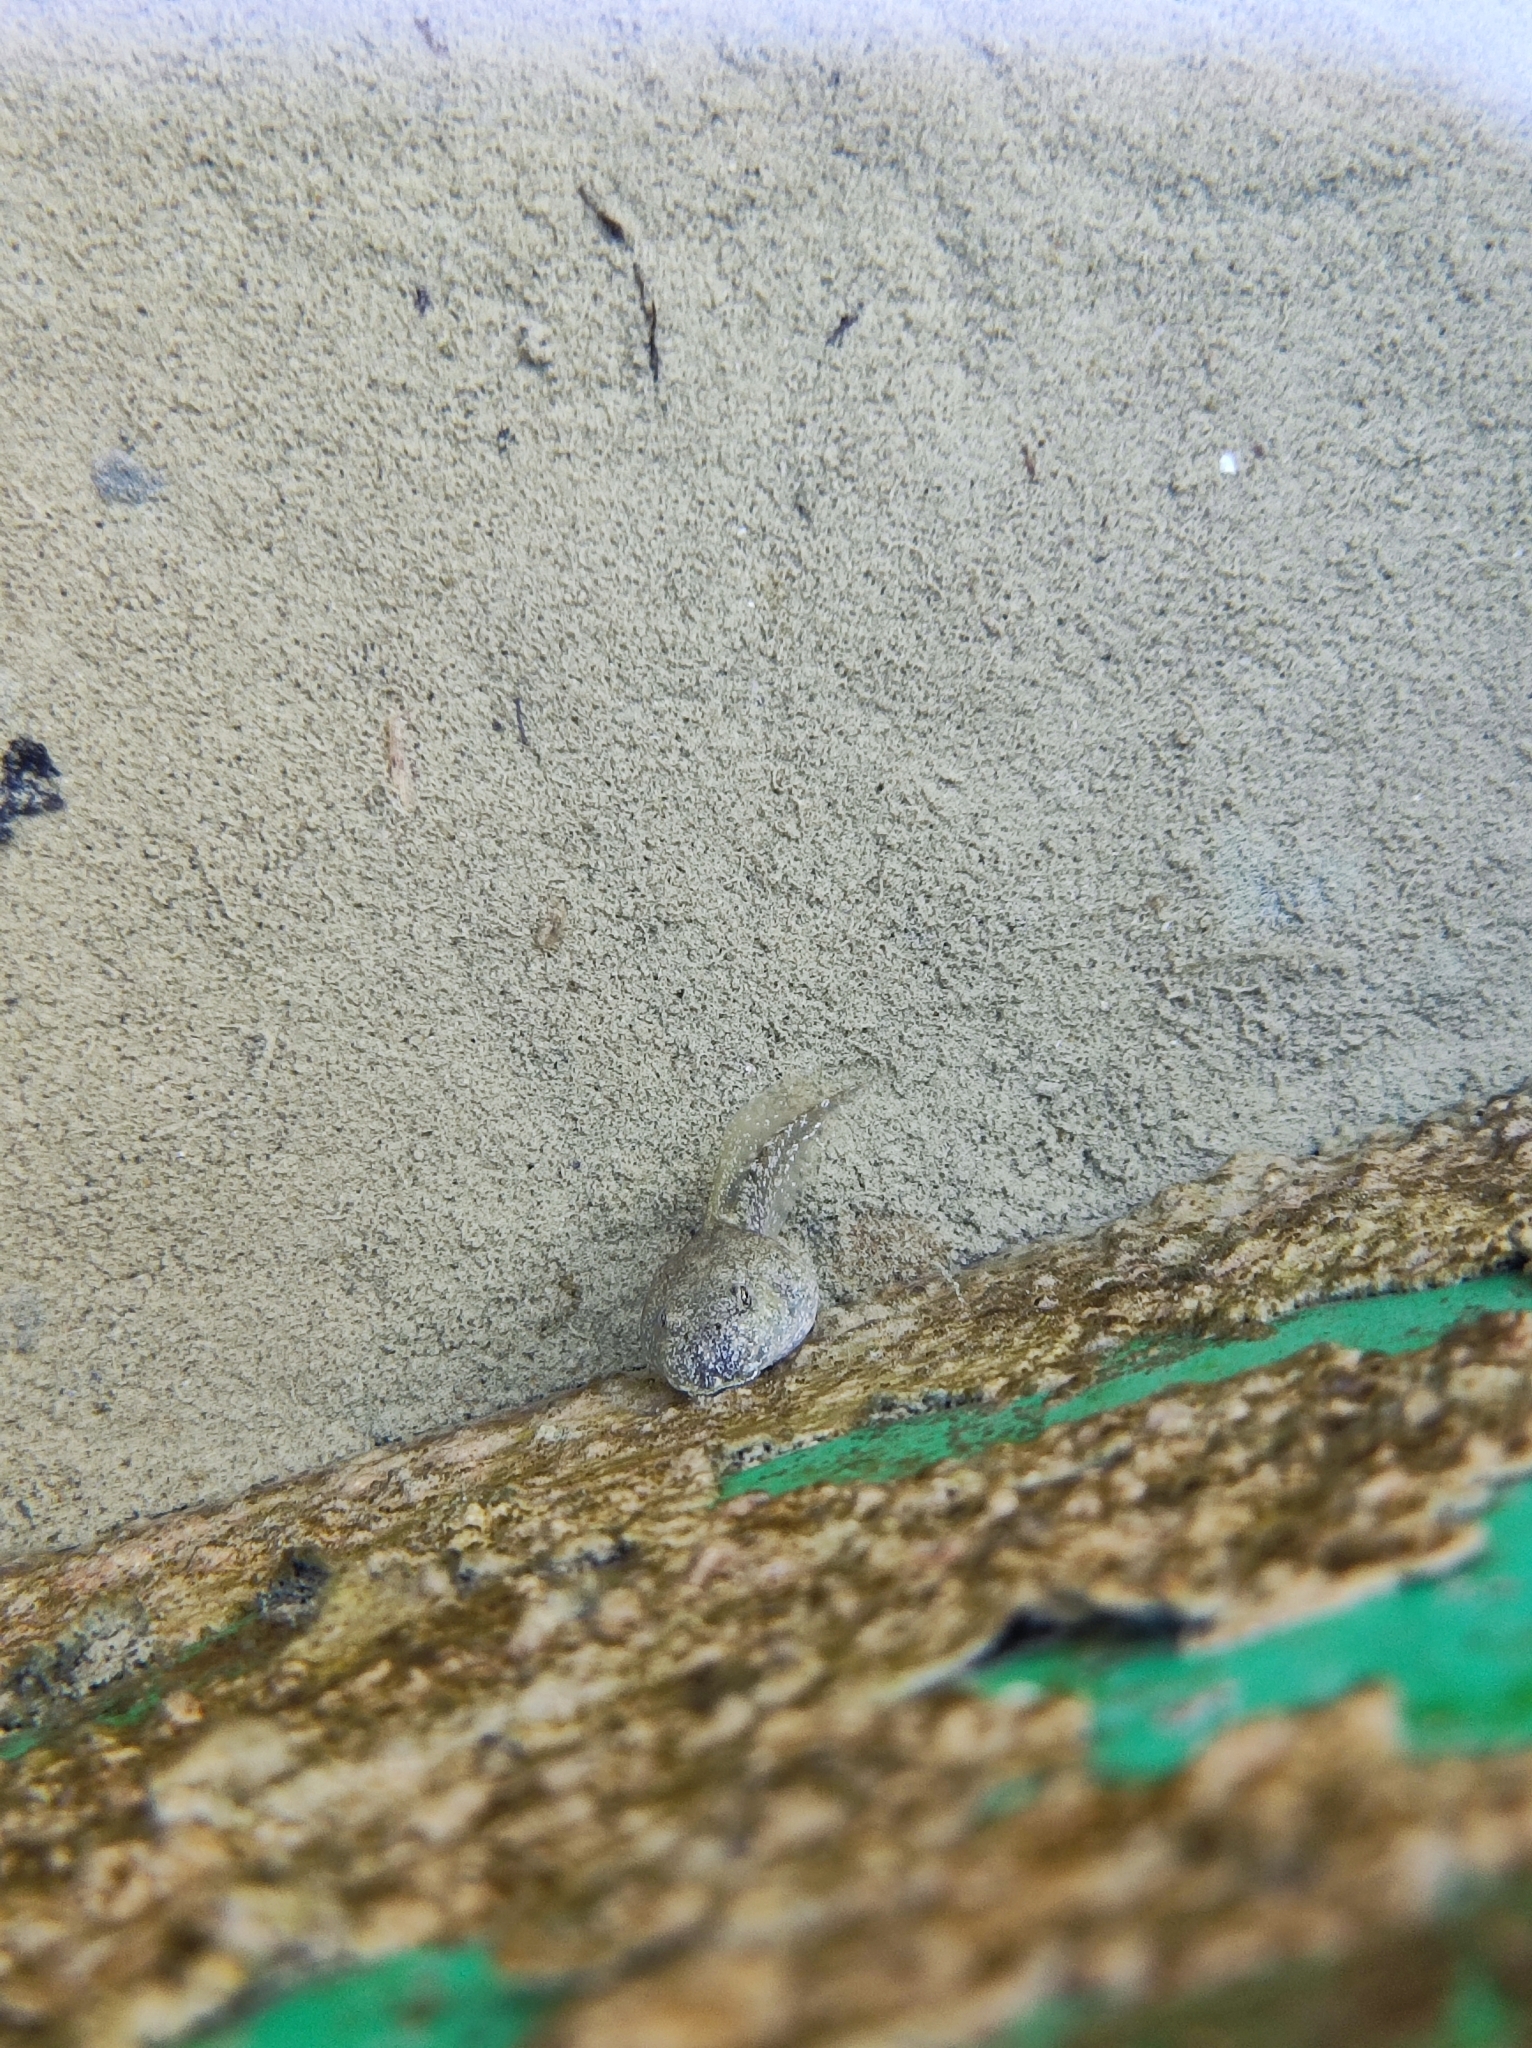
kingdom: Animalia
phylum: Chordata
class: Amphibia
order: Anura
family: Alytidae
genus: Alytes
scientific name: Alytes obstetricans
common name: Midwife toad
